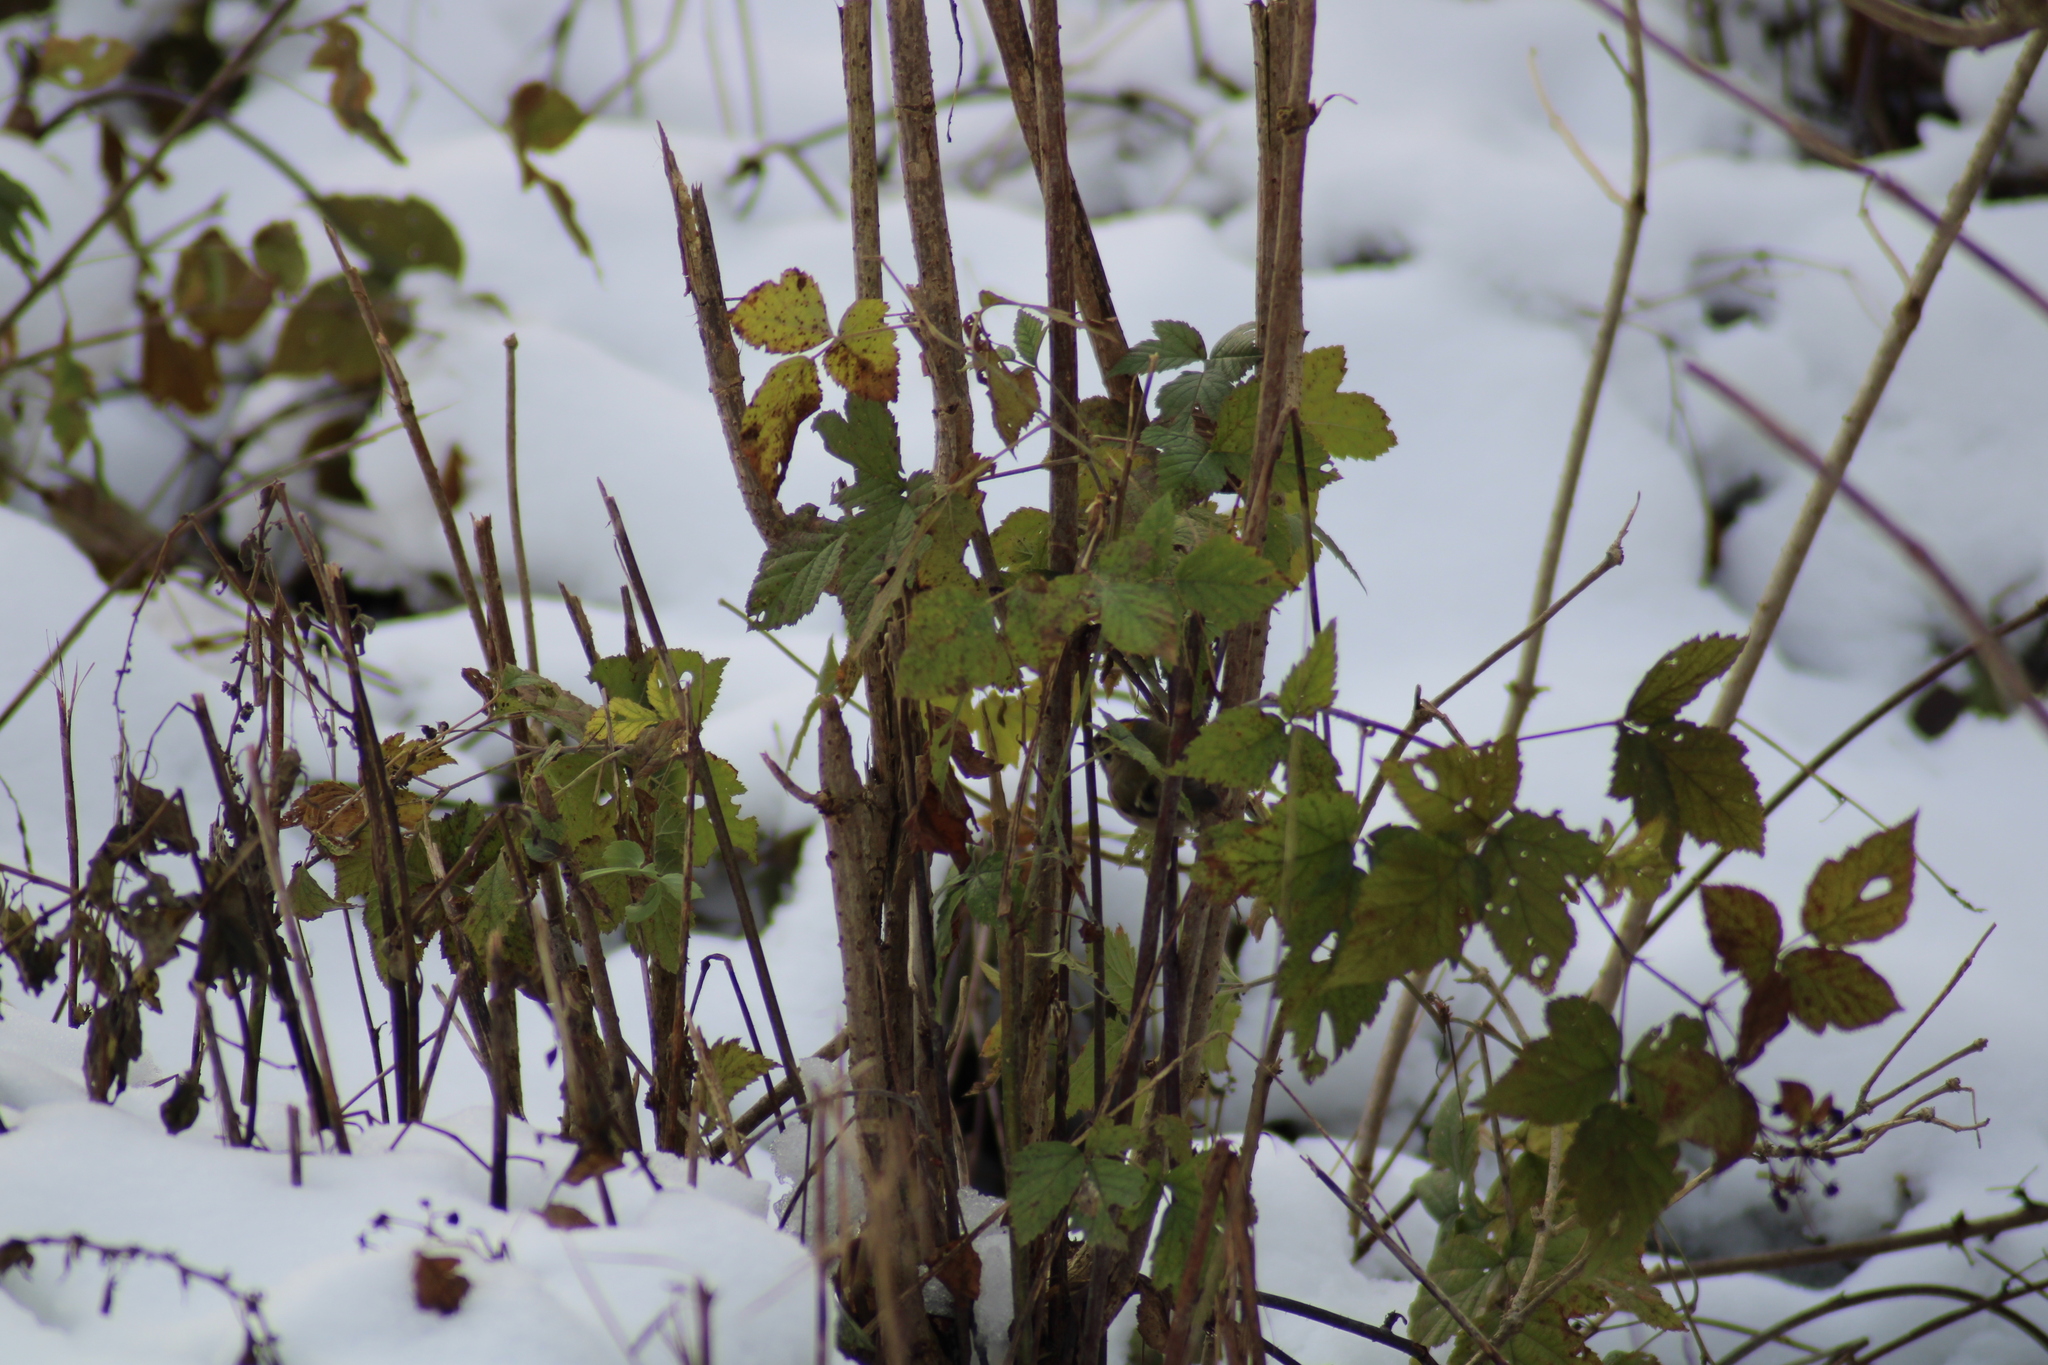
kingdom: Animalia
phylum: Chordata
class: Aves
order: Passeriformes
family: Regulidae
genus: Regulus
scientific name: Regulus regulus
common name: Goldcrest
